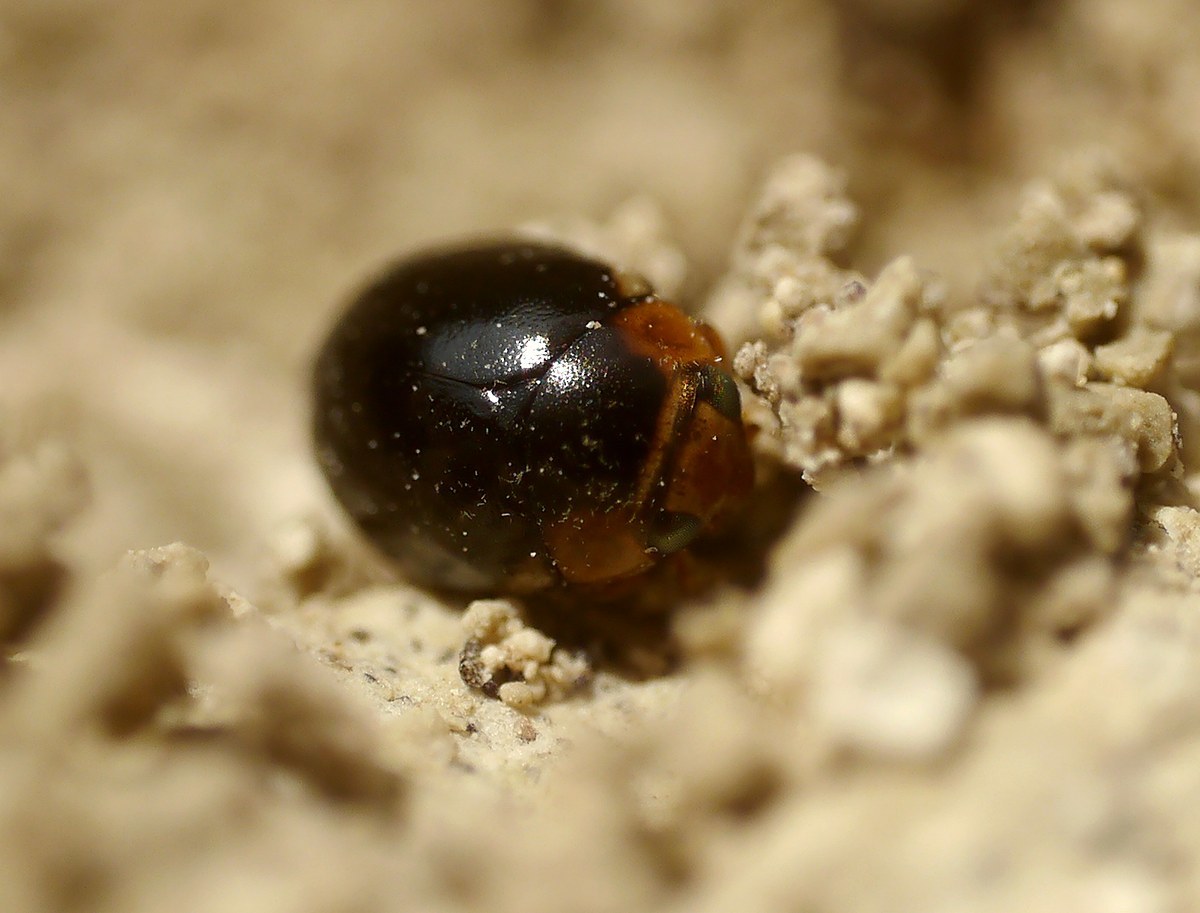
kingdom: Animalia
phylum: Arthropoda
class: Insecta
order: Coleoptera
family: Coccinellidae
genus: Hyperaspis
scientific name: Hyperaspis pseudopustulata
